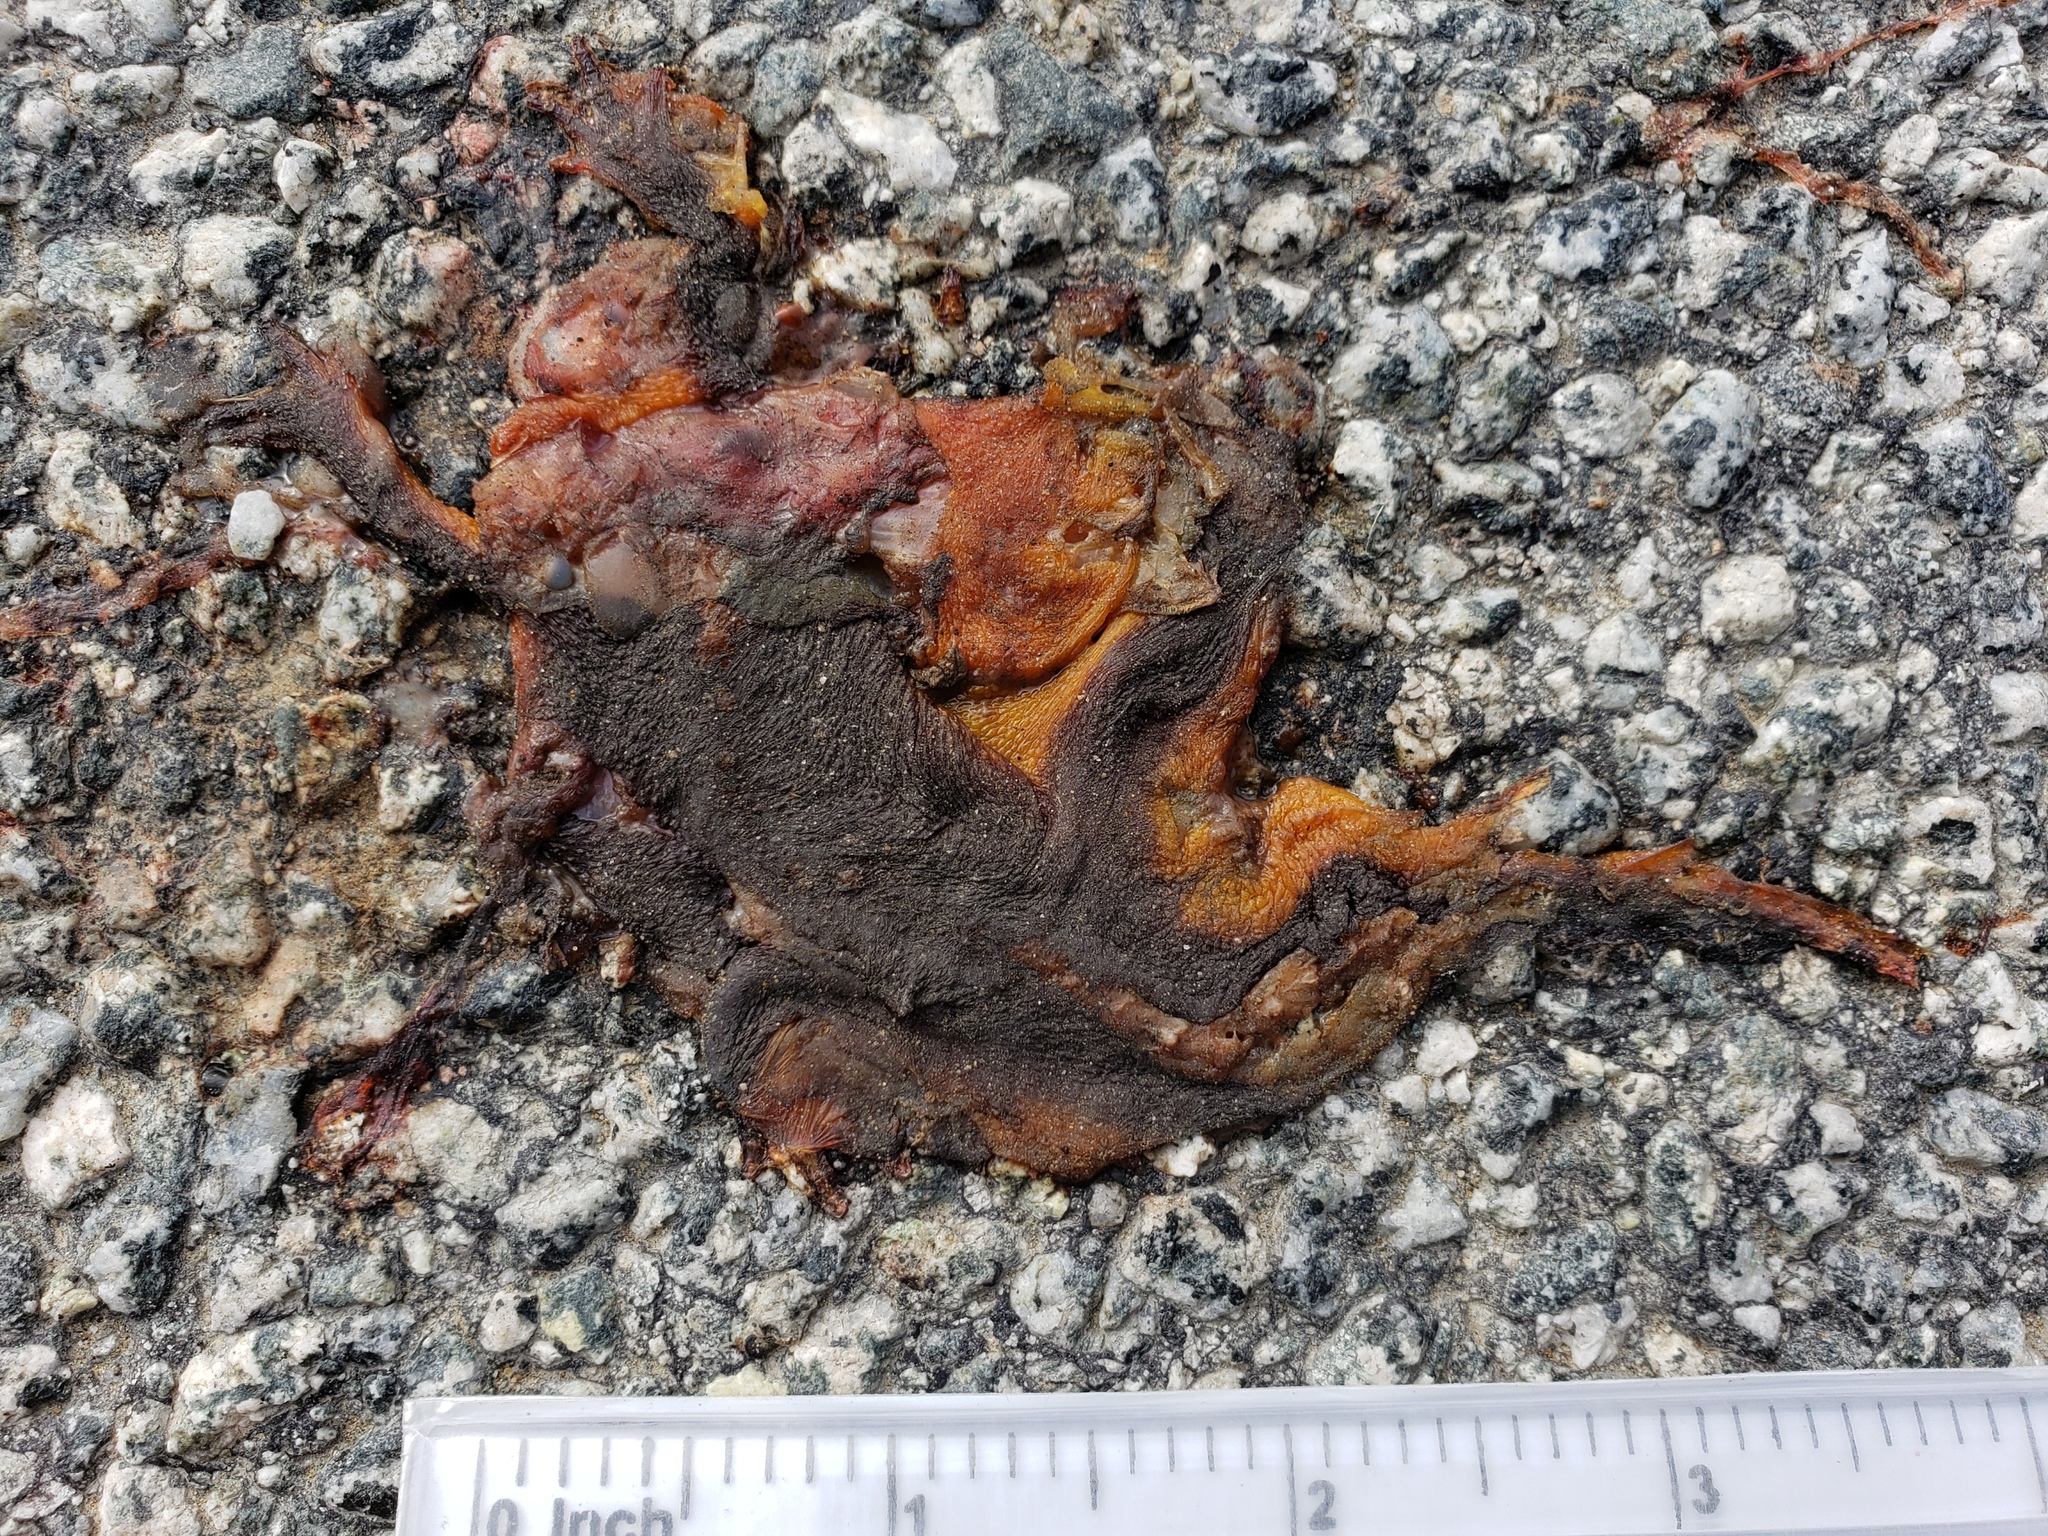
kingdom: Animalia
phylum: Chordata
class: Amphibia
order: Caudata
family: Salamandridae
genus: Taricha
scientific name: Taricha
